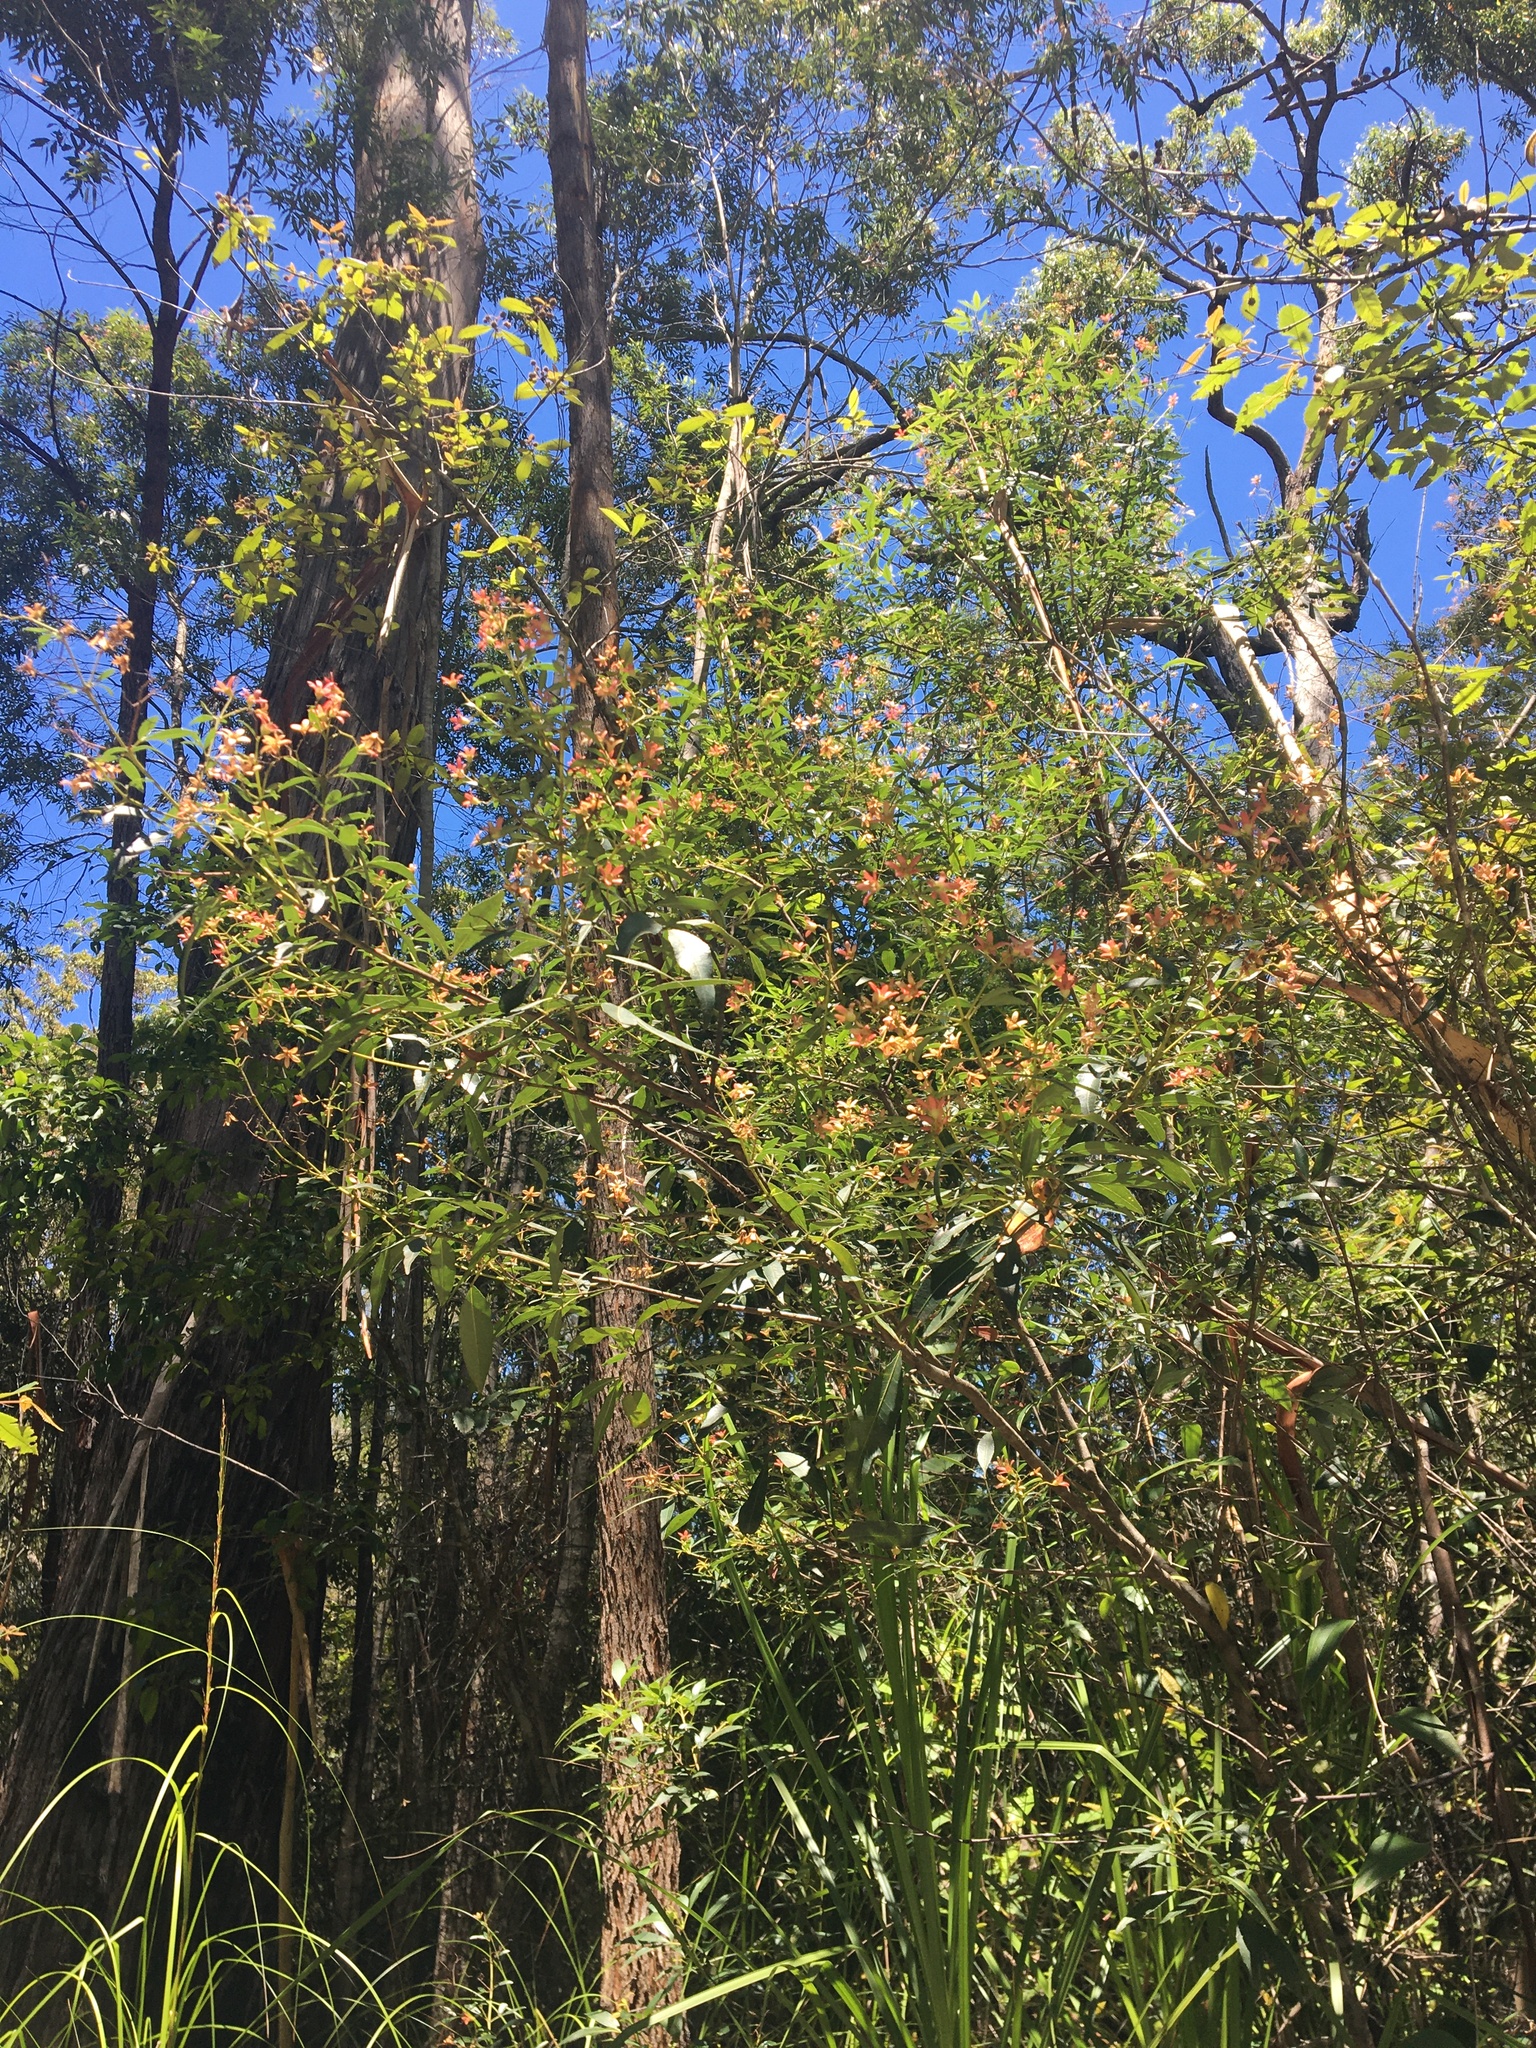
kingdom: Plantae
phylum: Tracheophyta
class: Magnoliopsida
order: Oxalidales
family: Cunoniaceae
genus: Ceratopetalum
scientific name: Ceratopetalum gummiferum
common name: Christmasbush
